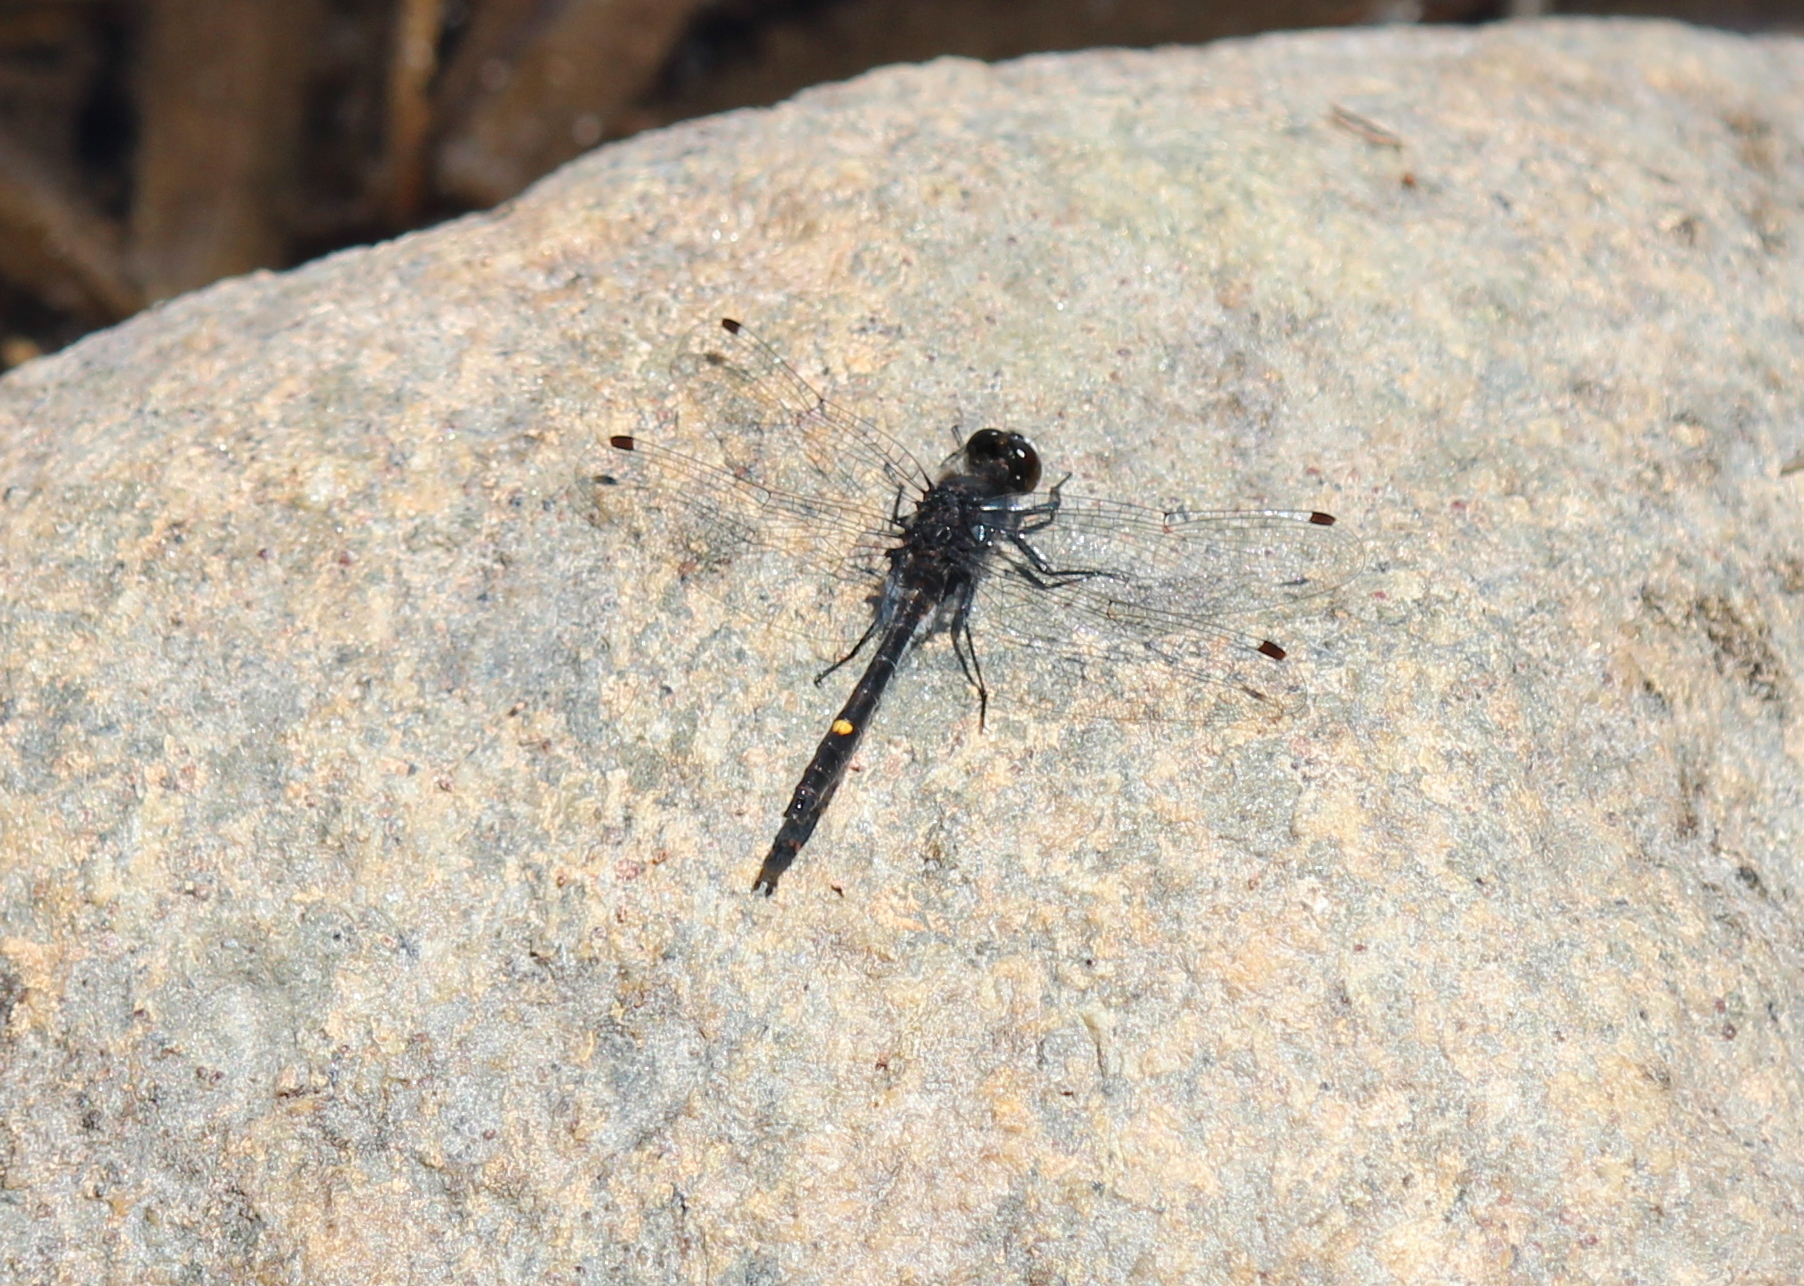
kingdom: Animalia
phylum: Arthropoda
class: Insecta
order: Odonata
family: Libellulidae
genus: Leucorrhinia
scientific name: Leucorrhinia intacta
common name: Dot-tailed whiteface
